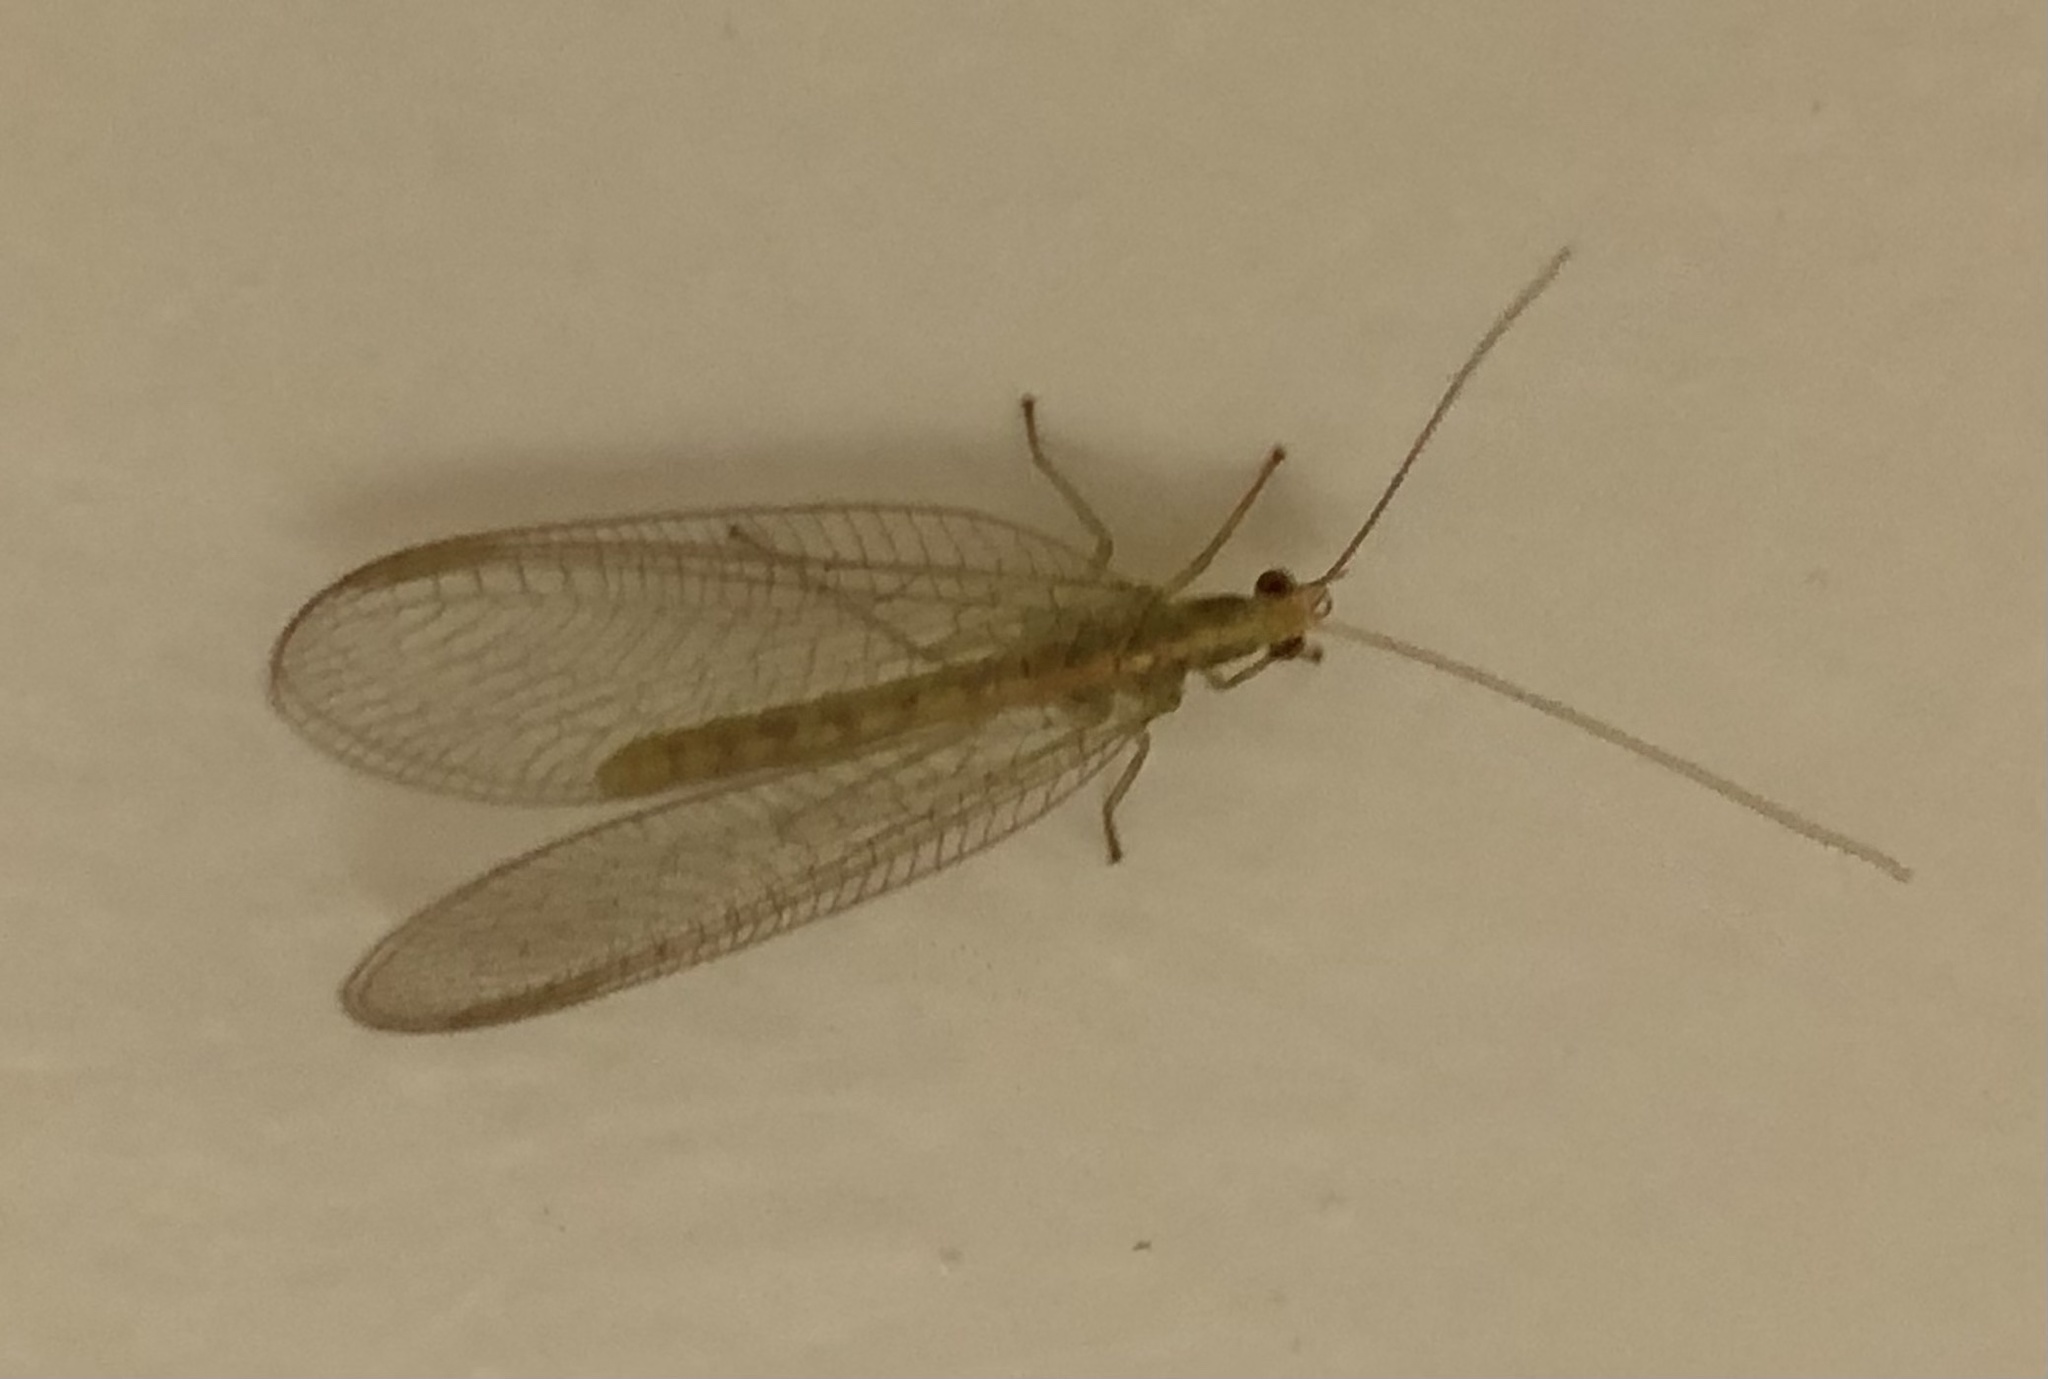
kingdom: Animalia
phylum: Arthropoda
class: Insecta
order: Neuroptera
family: Chrysopidae
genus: Chrysoperla
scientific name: Chrysoperla
